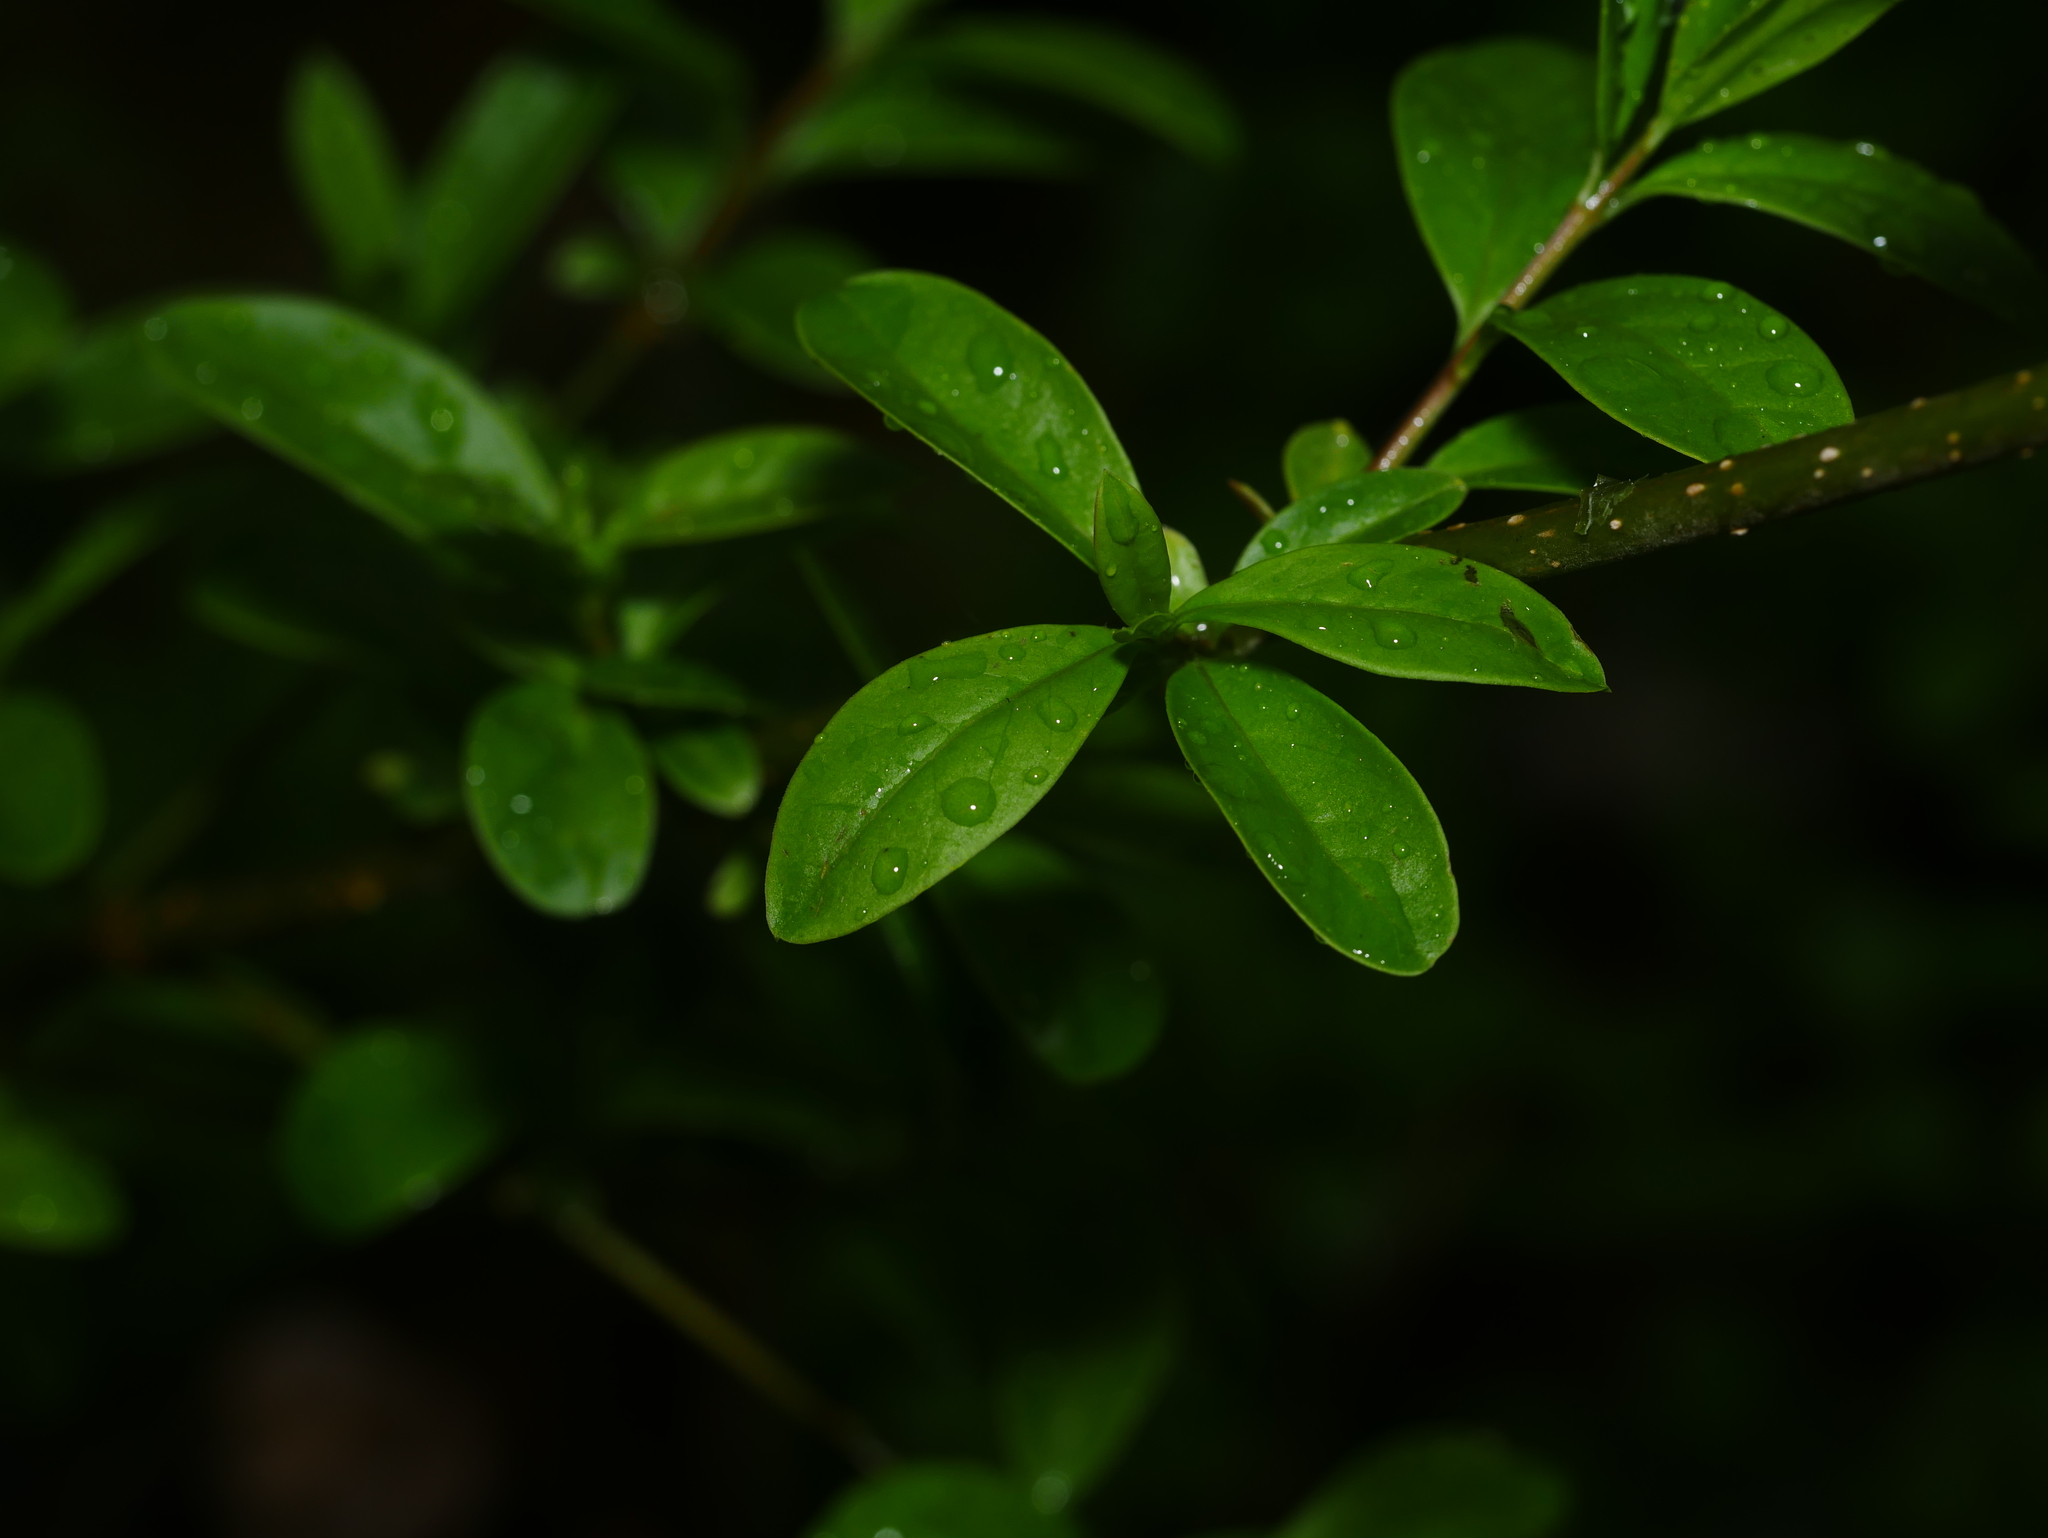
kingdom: Plantae
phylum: Tracheophyta
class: Magnoliopsida
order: Lamiales
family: Oleaceae
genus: Ligustrum
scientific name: Ligustrum vulgare
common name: Wild privet
